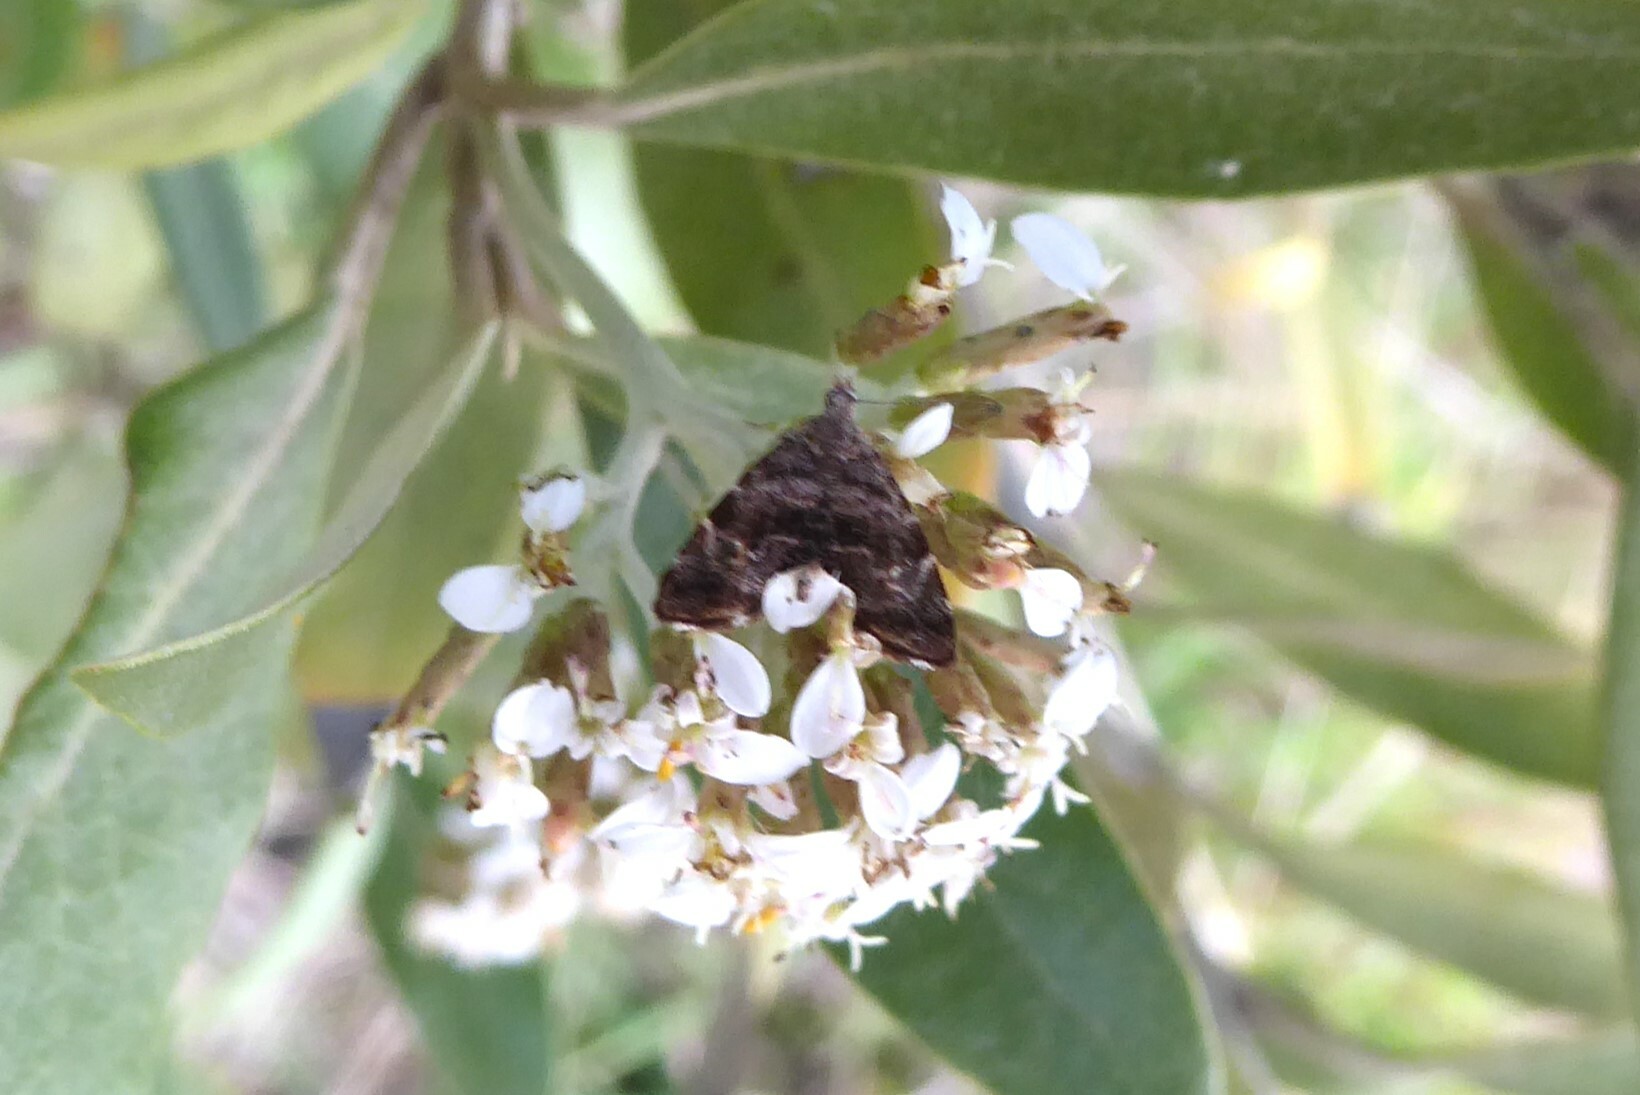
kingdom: Animalia
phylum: Arthropoda
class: Insecta
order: Lepidoptera
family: Choreutidae
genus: Asterivora
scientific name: Asterivora colpota
